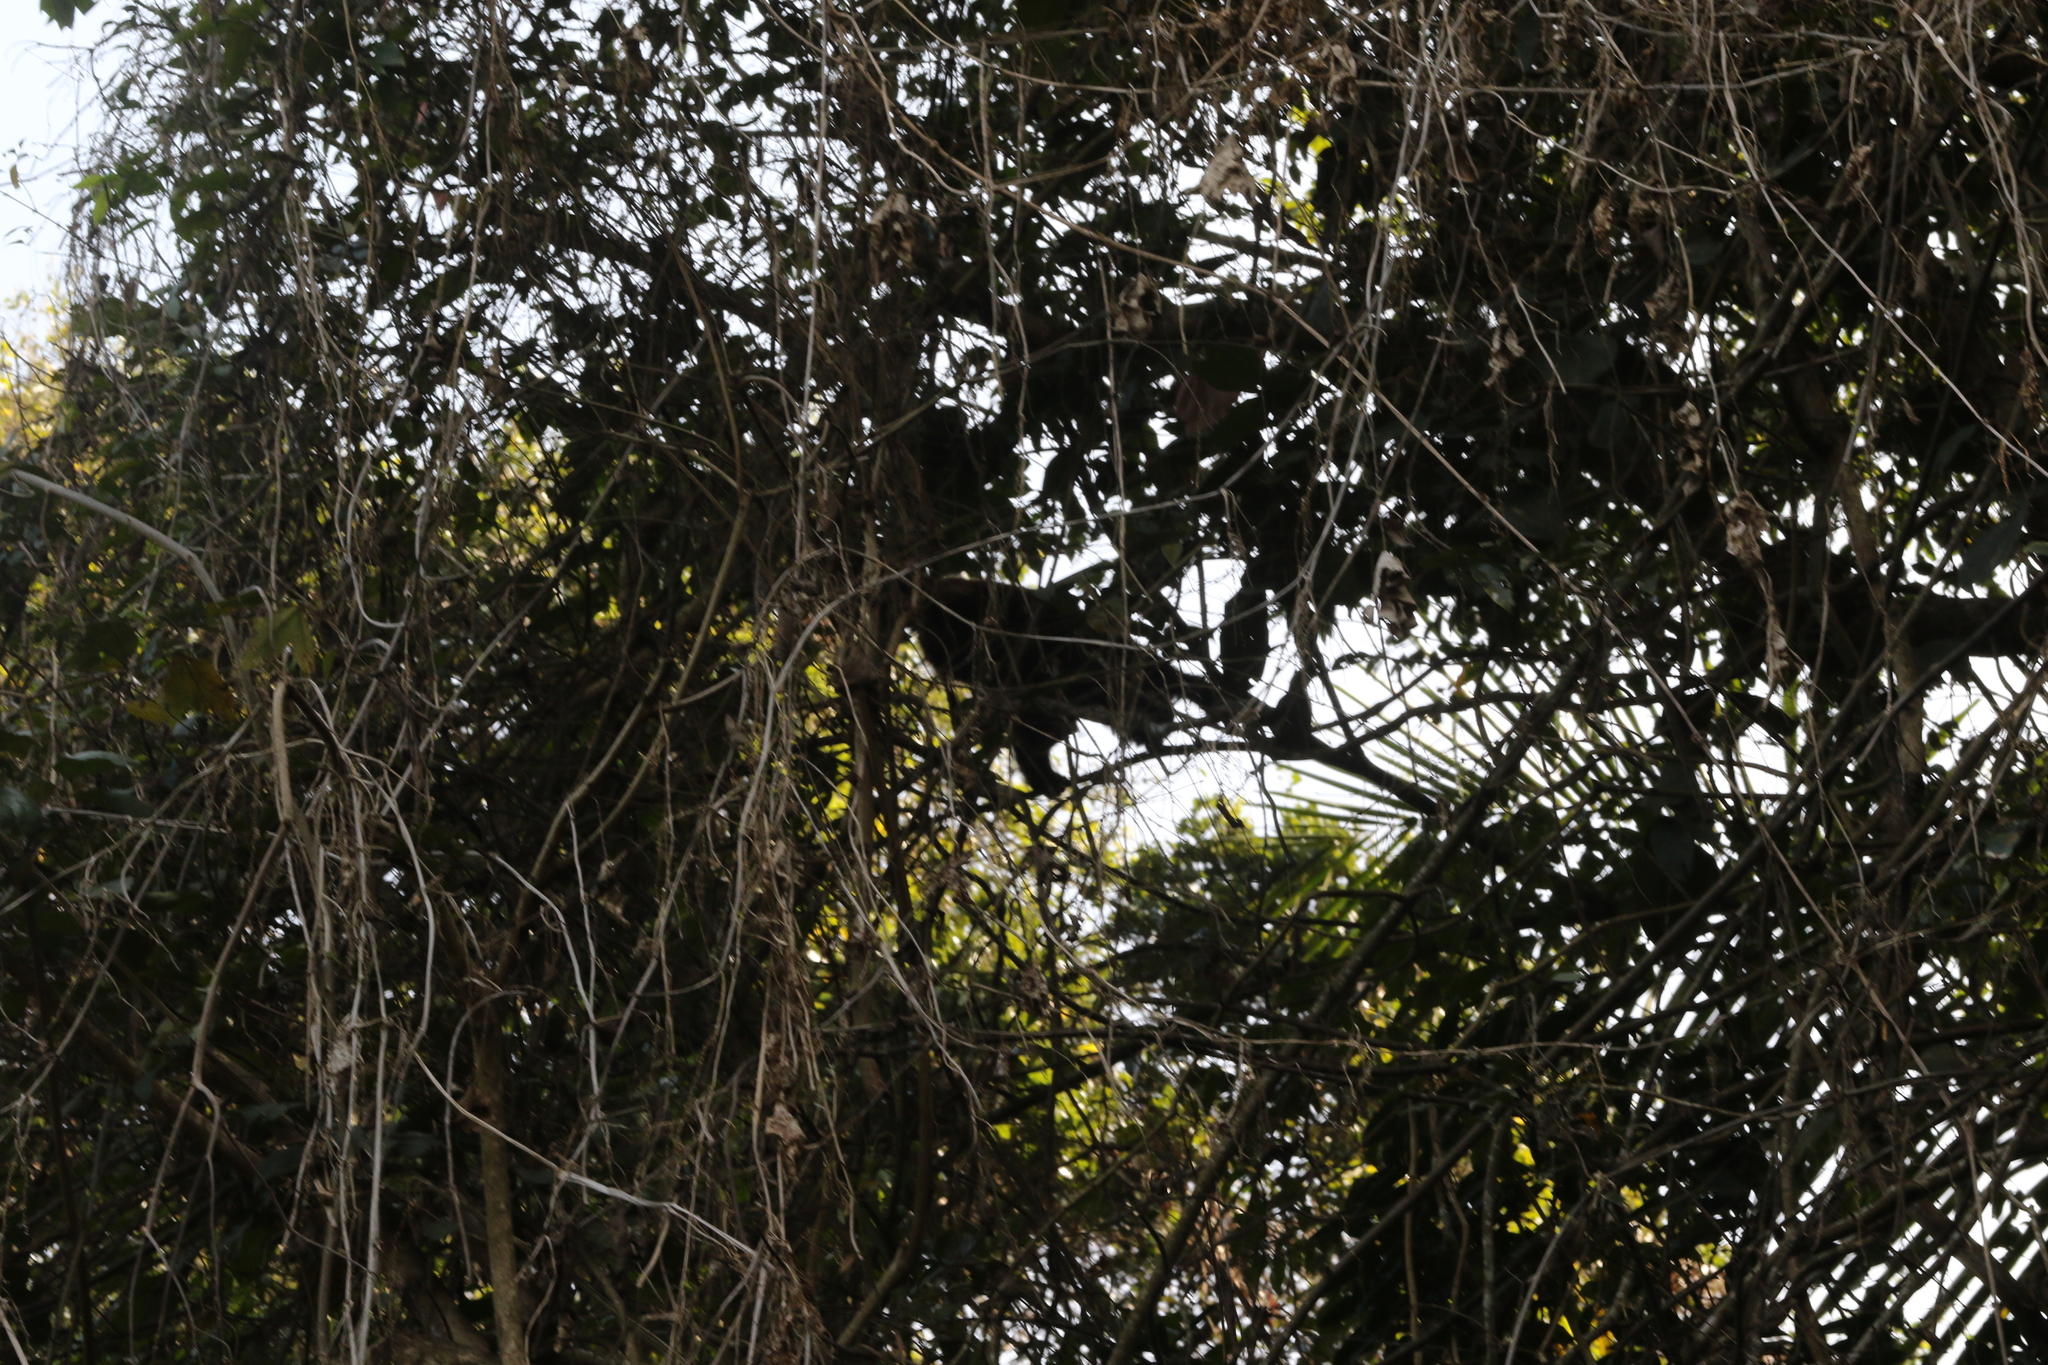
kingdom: Animalia
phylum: Chordata
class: Mammalia
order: Primates
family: Atelidae
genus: Alouatta
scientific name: Alouatta guariba
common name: Brown howler monkey
